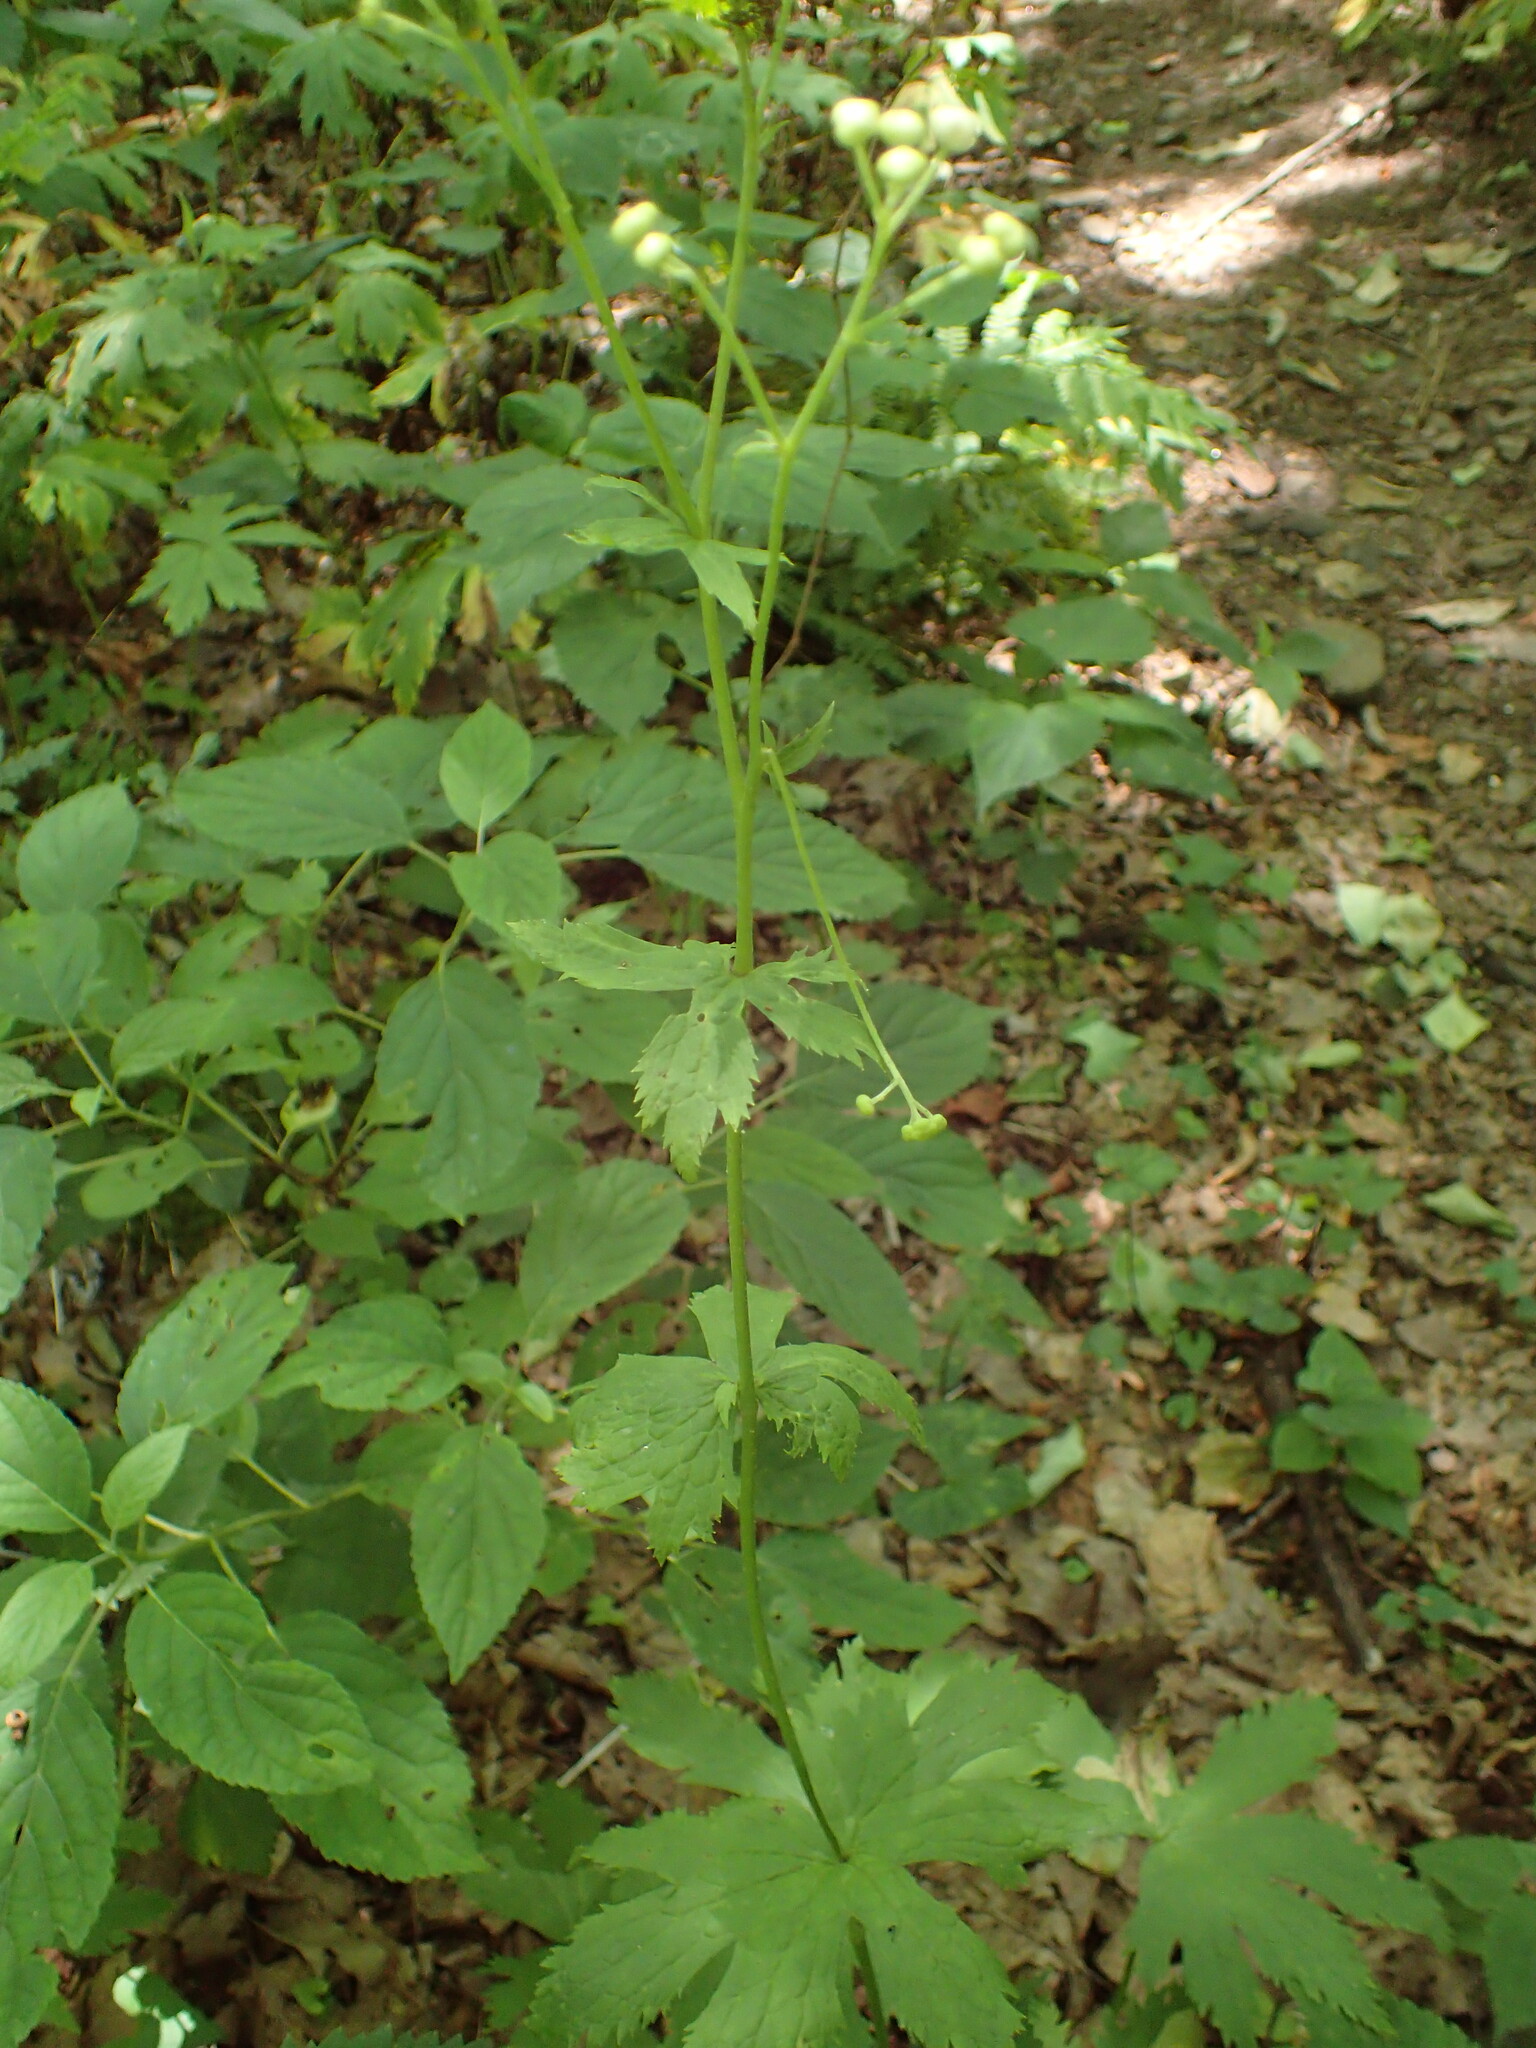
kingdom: Plantae
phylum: Tracheophyta
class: Magnoliopsida
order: Ranunculales
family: Ranunculaceae
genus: Trautvetteria
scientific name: Trautvetteria carolinensis
